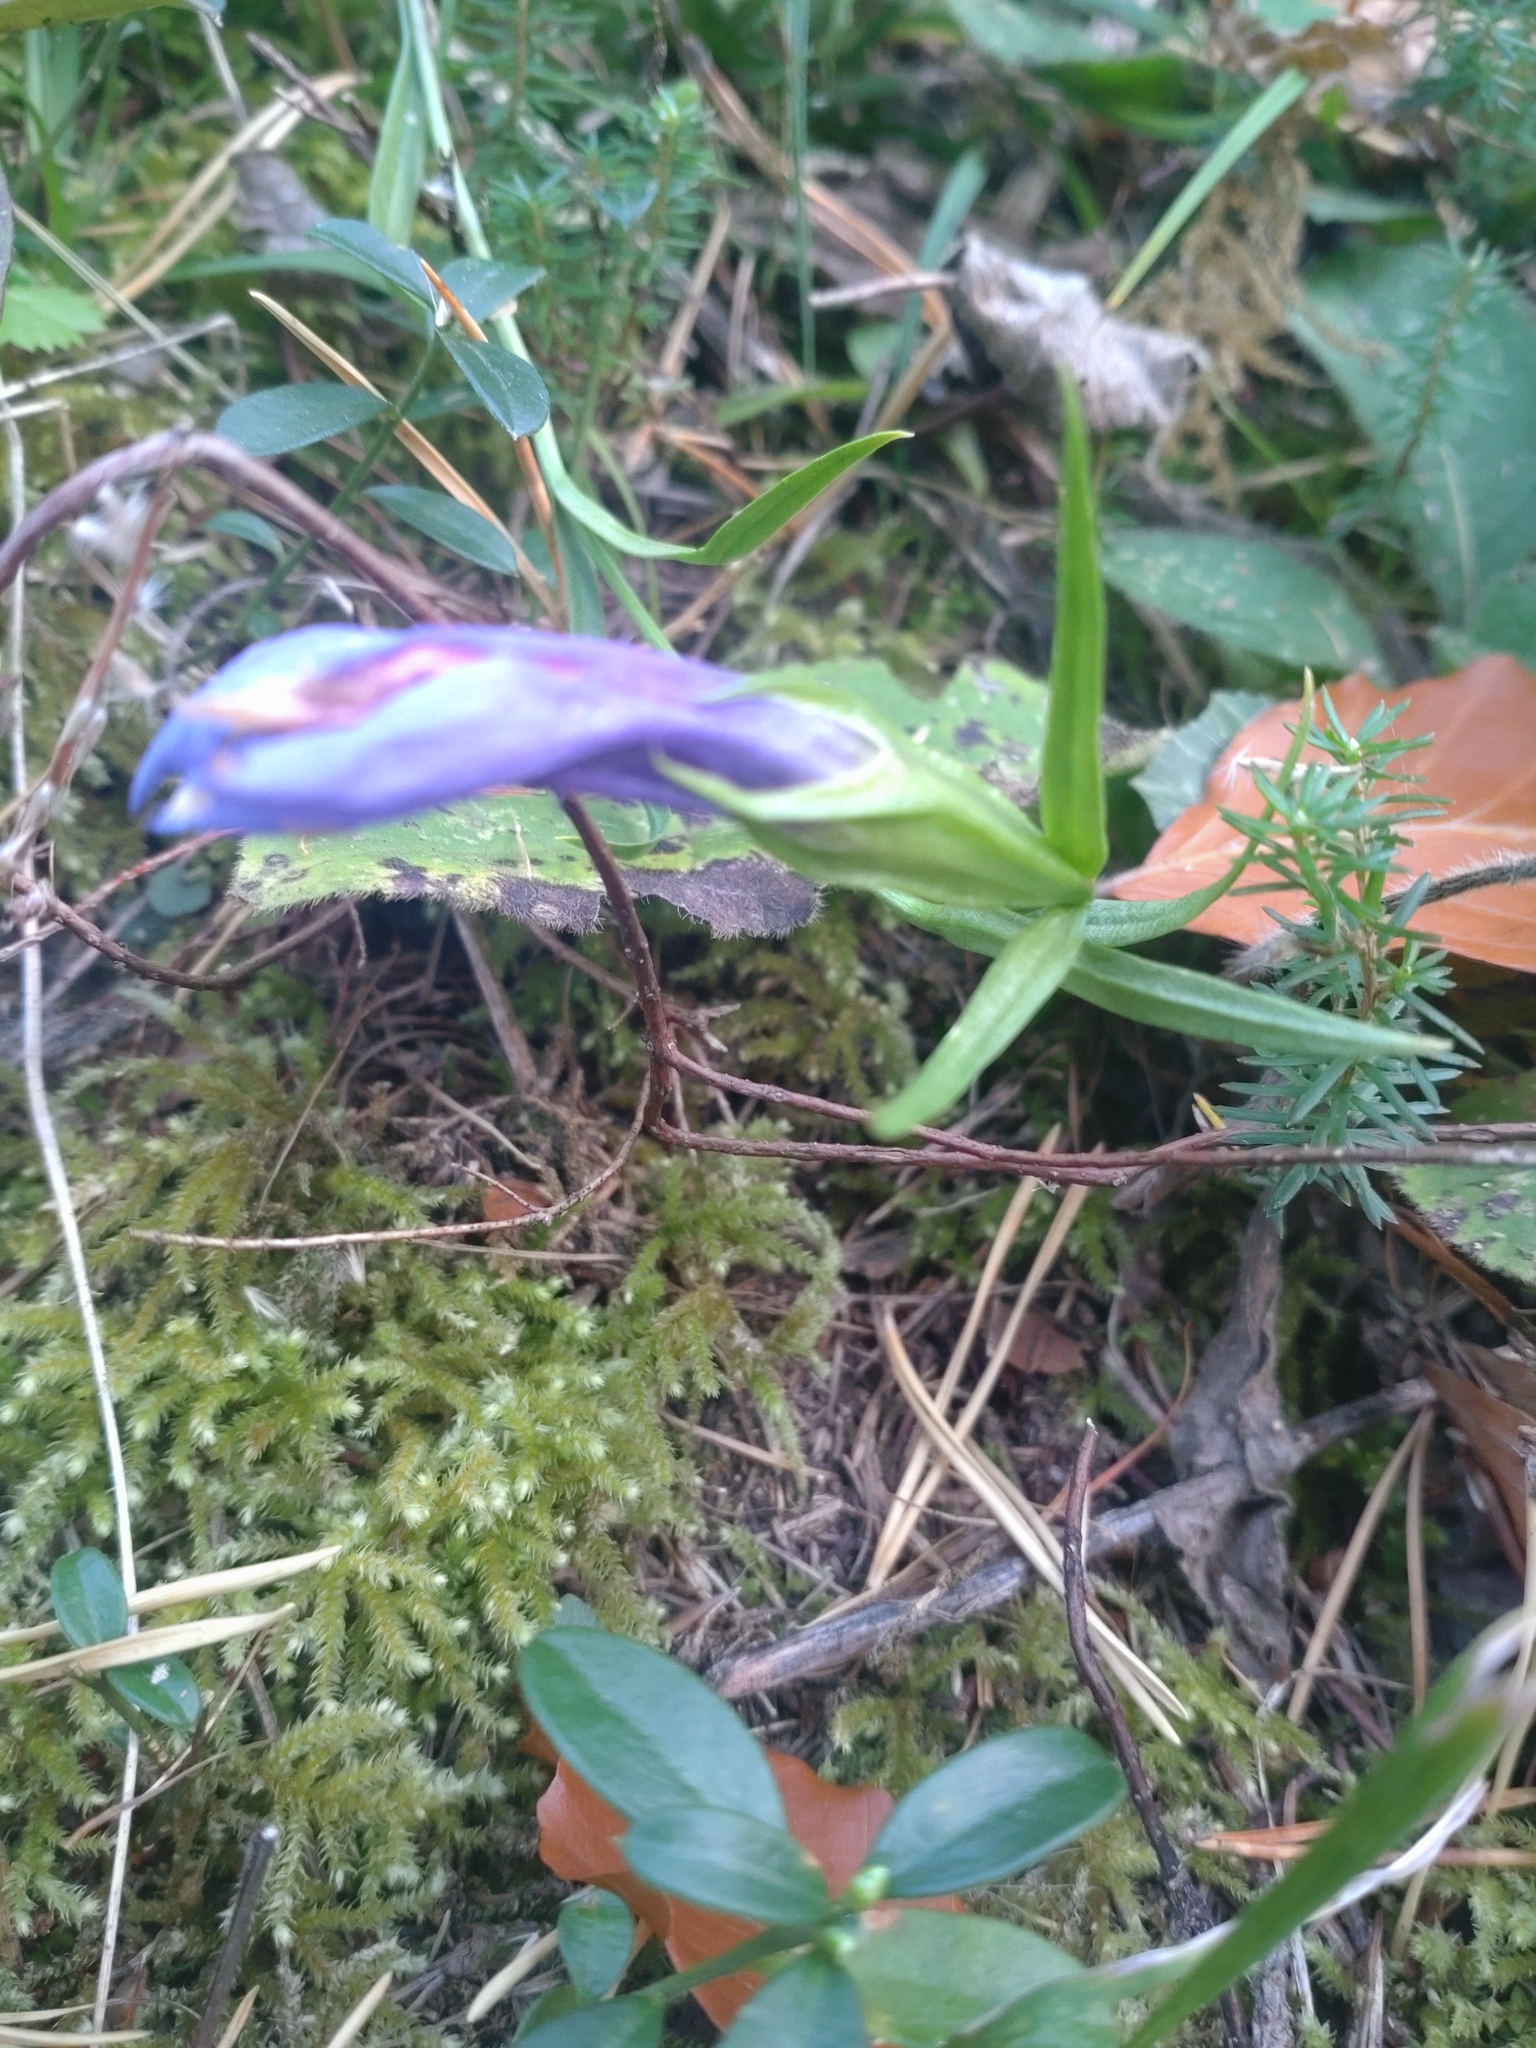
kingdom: Plantae
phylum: Tracheophyta
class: Magnoliopsida
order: Gentianales
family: Gentianaceae
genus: Gentianopsis
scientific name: Gentianopsis ciliata
